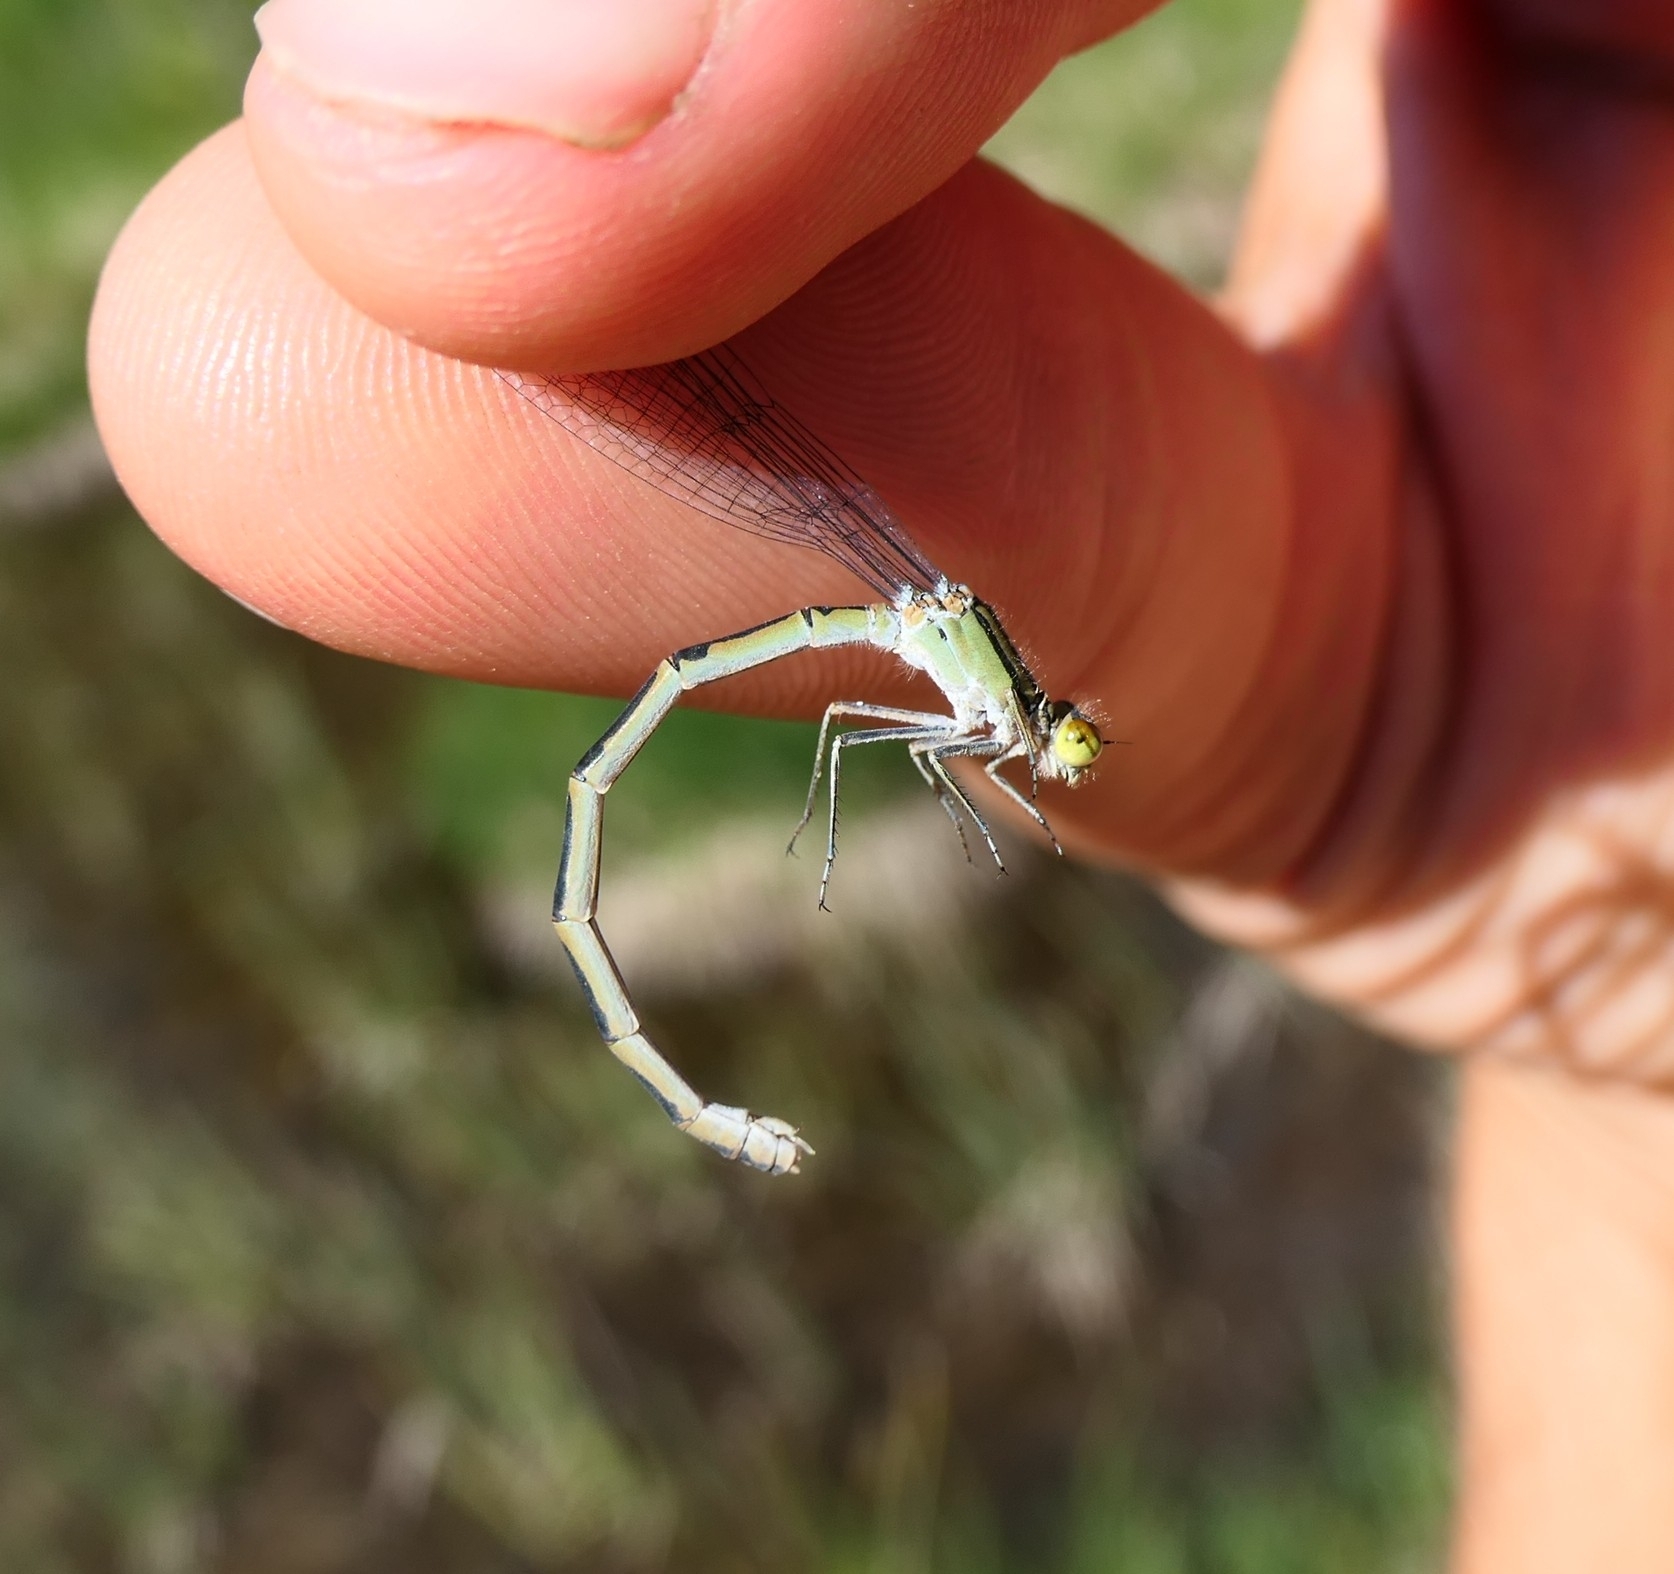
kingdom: Animalia
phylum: Arthropoda
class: Insecta
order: Odonata
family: Coenagrionidae
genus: Enallagma
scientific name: Enallagma cyathigerum
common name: Common blue damselfly
